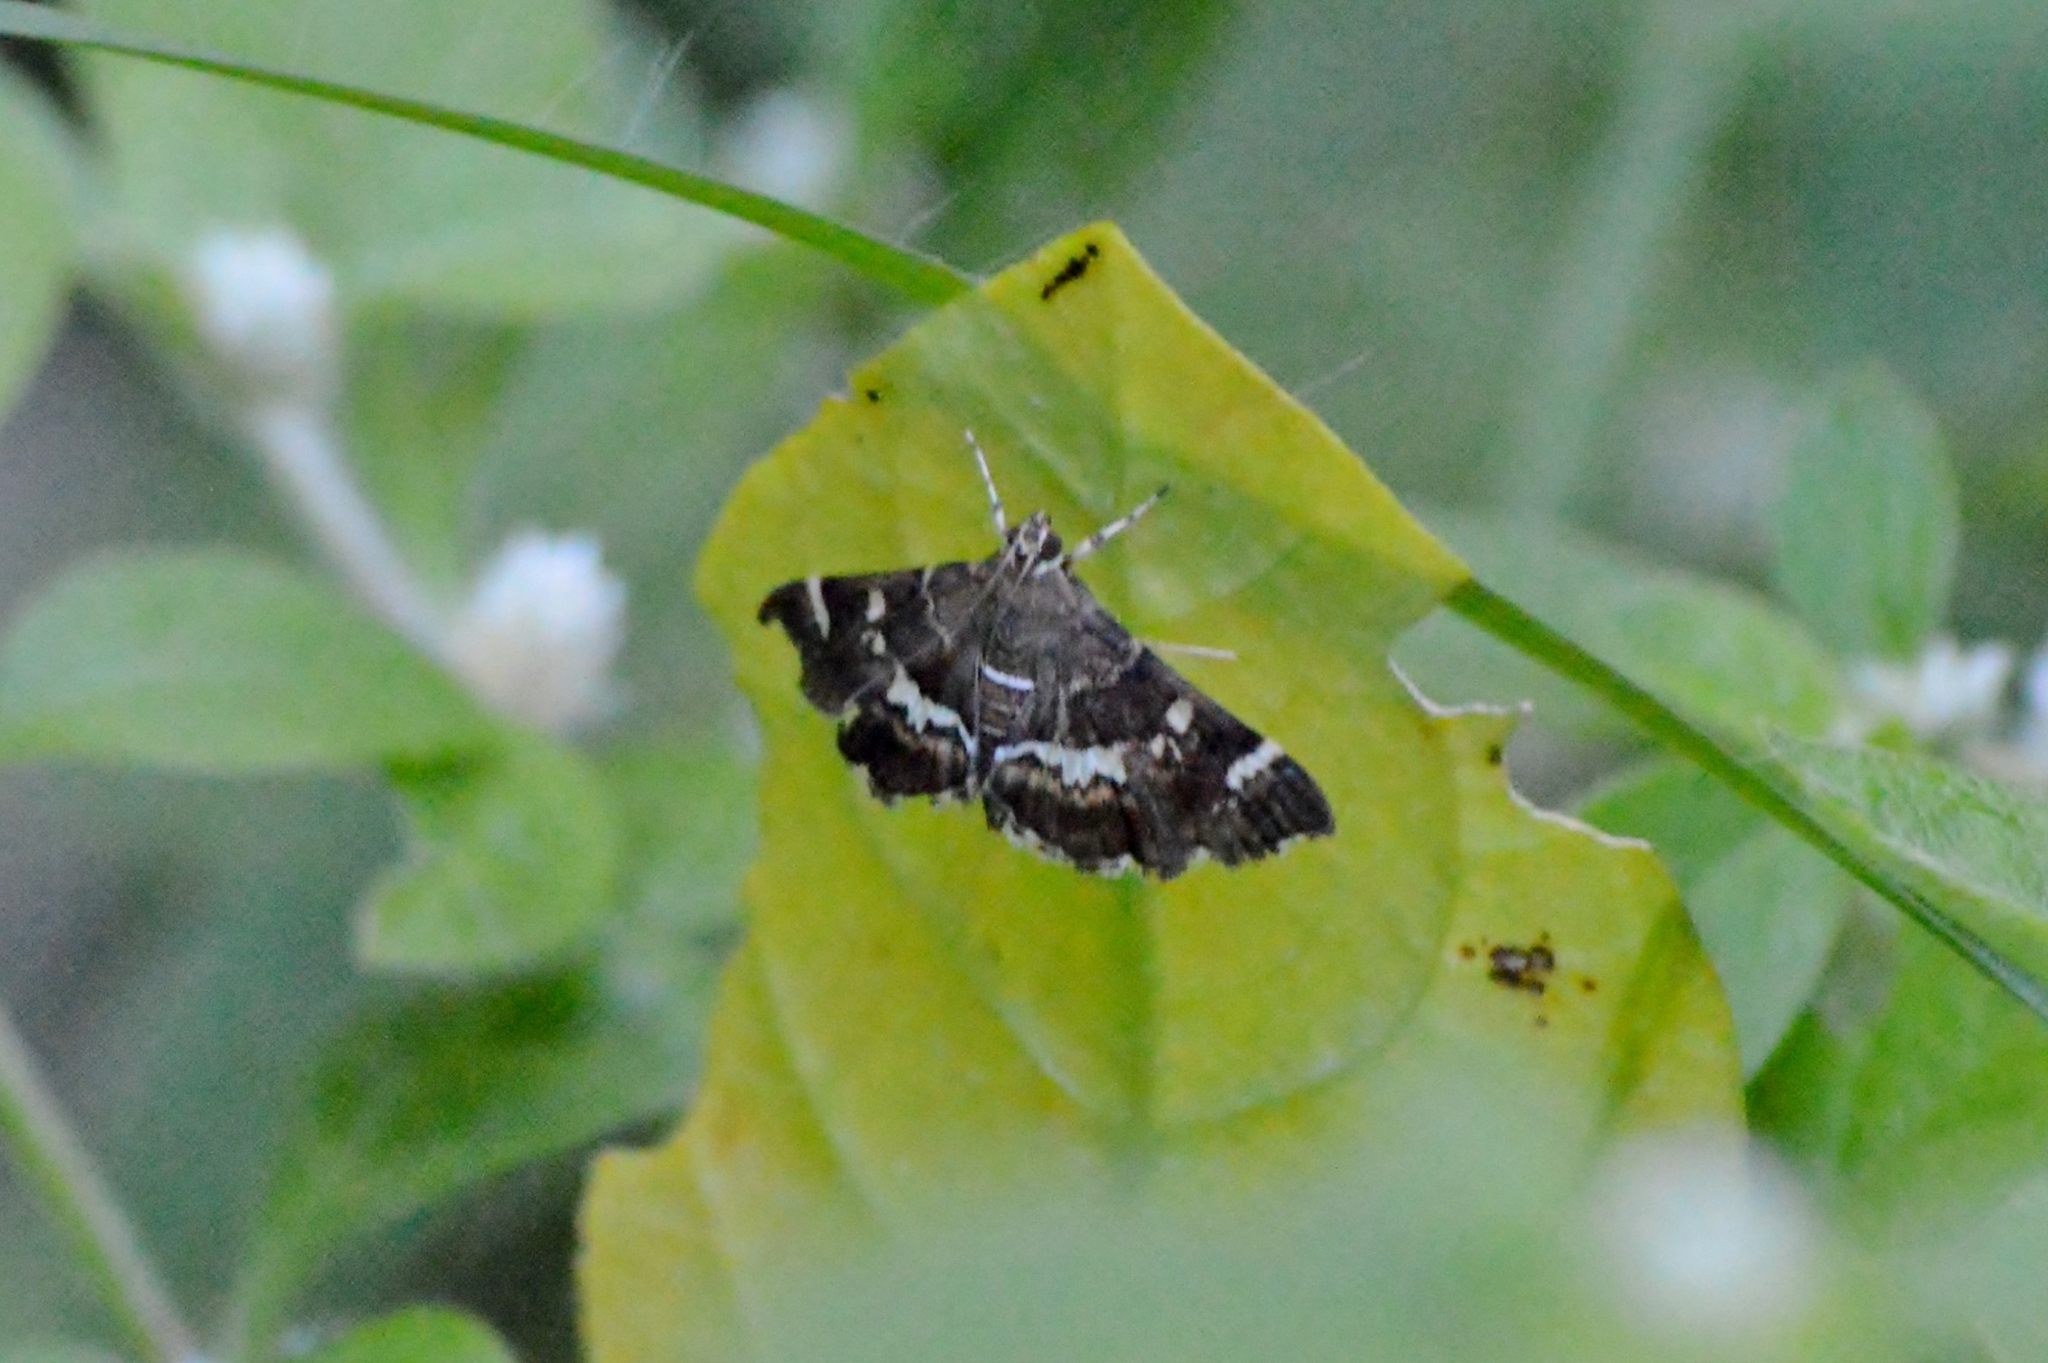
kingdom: Animalia
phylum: Arthropoda
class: Insecta
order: Lepidoptera
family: Crambidae
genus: Hymenia
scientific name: Hymenia perspectalis
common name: Spotted beet webworm
